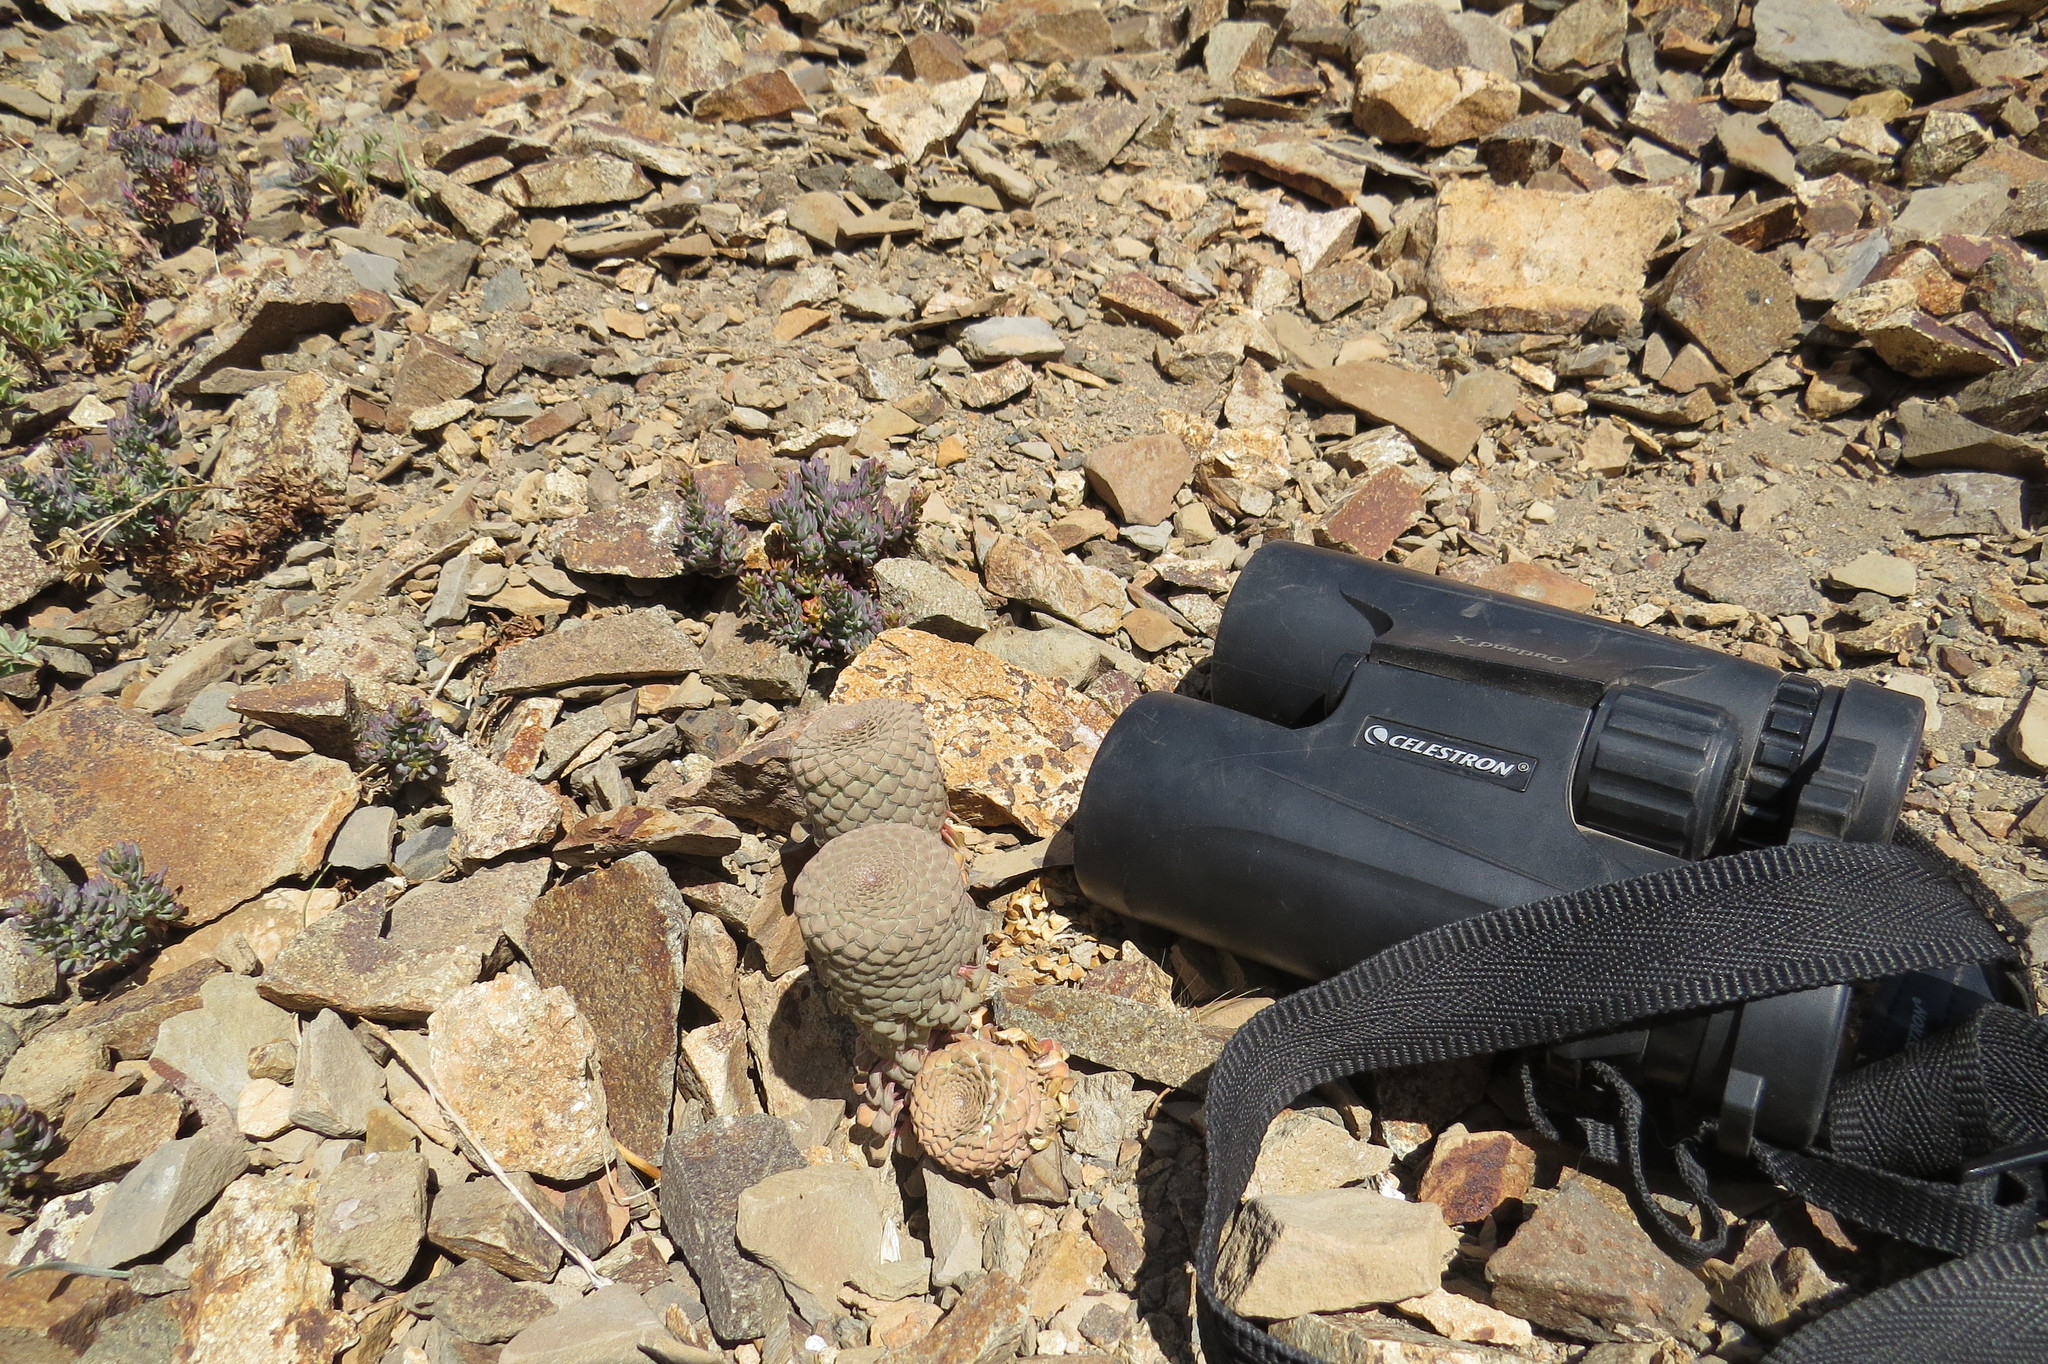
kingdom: Plantae
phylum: Tracheophyta
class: Magnoliopsida
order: Malpighiales
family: Violaceae
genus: Viola
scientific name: Viola abbreviata
